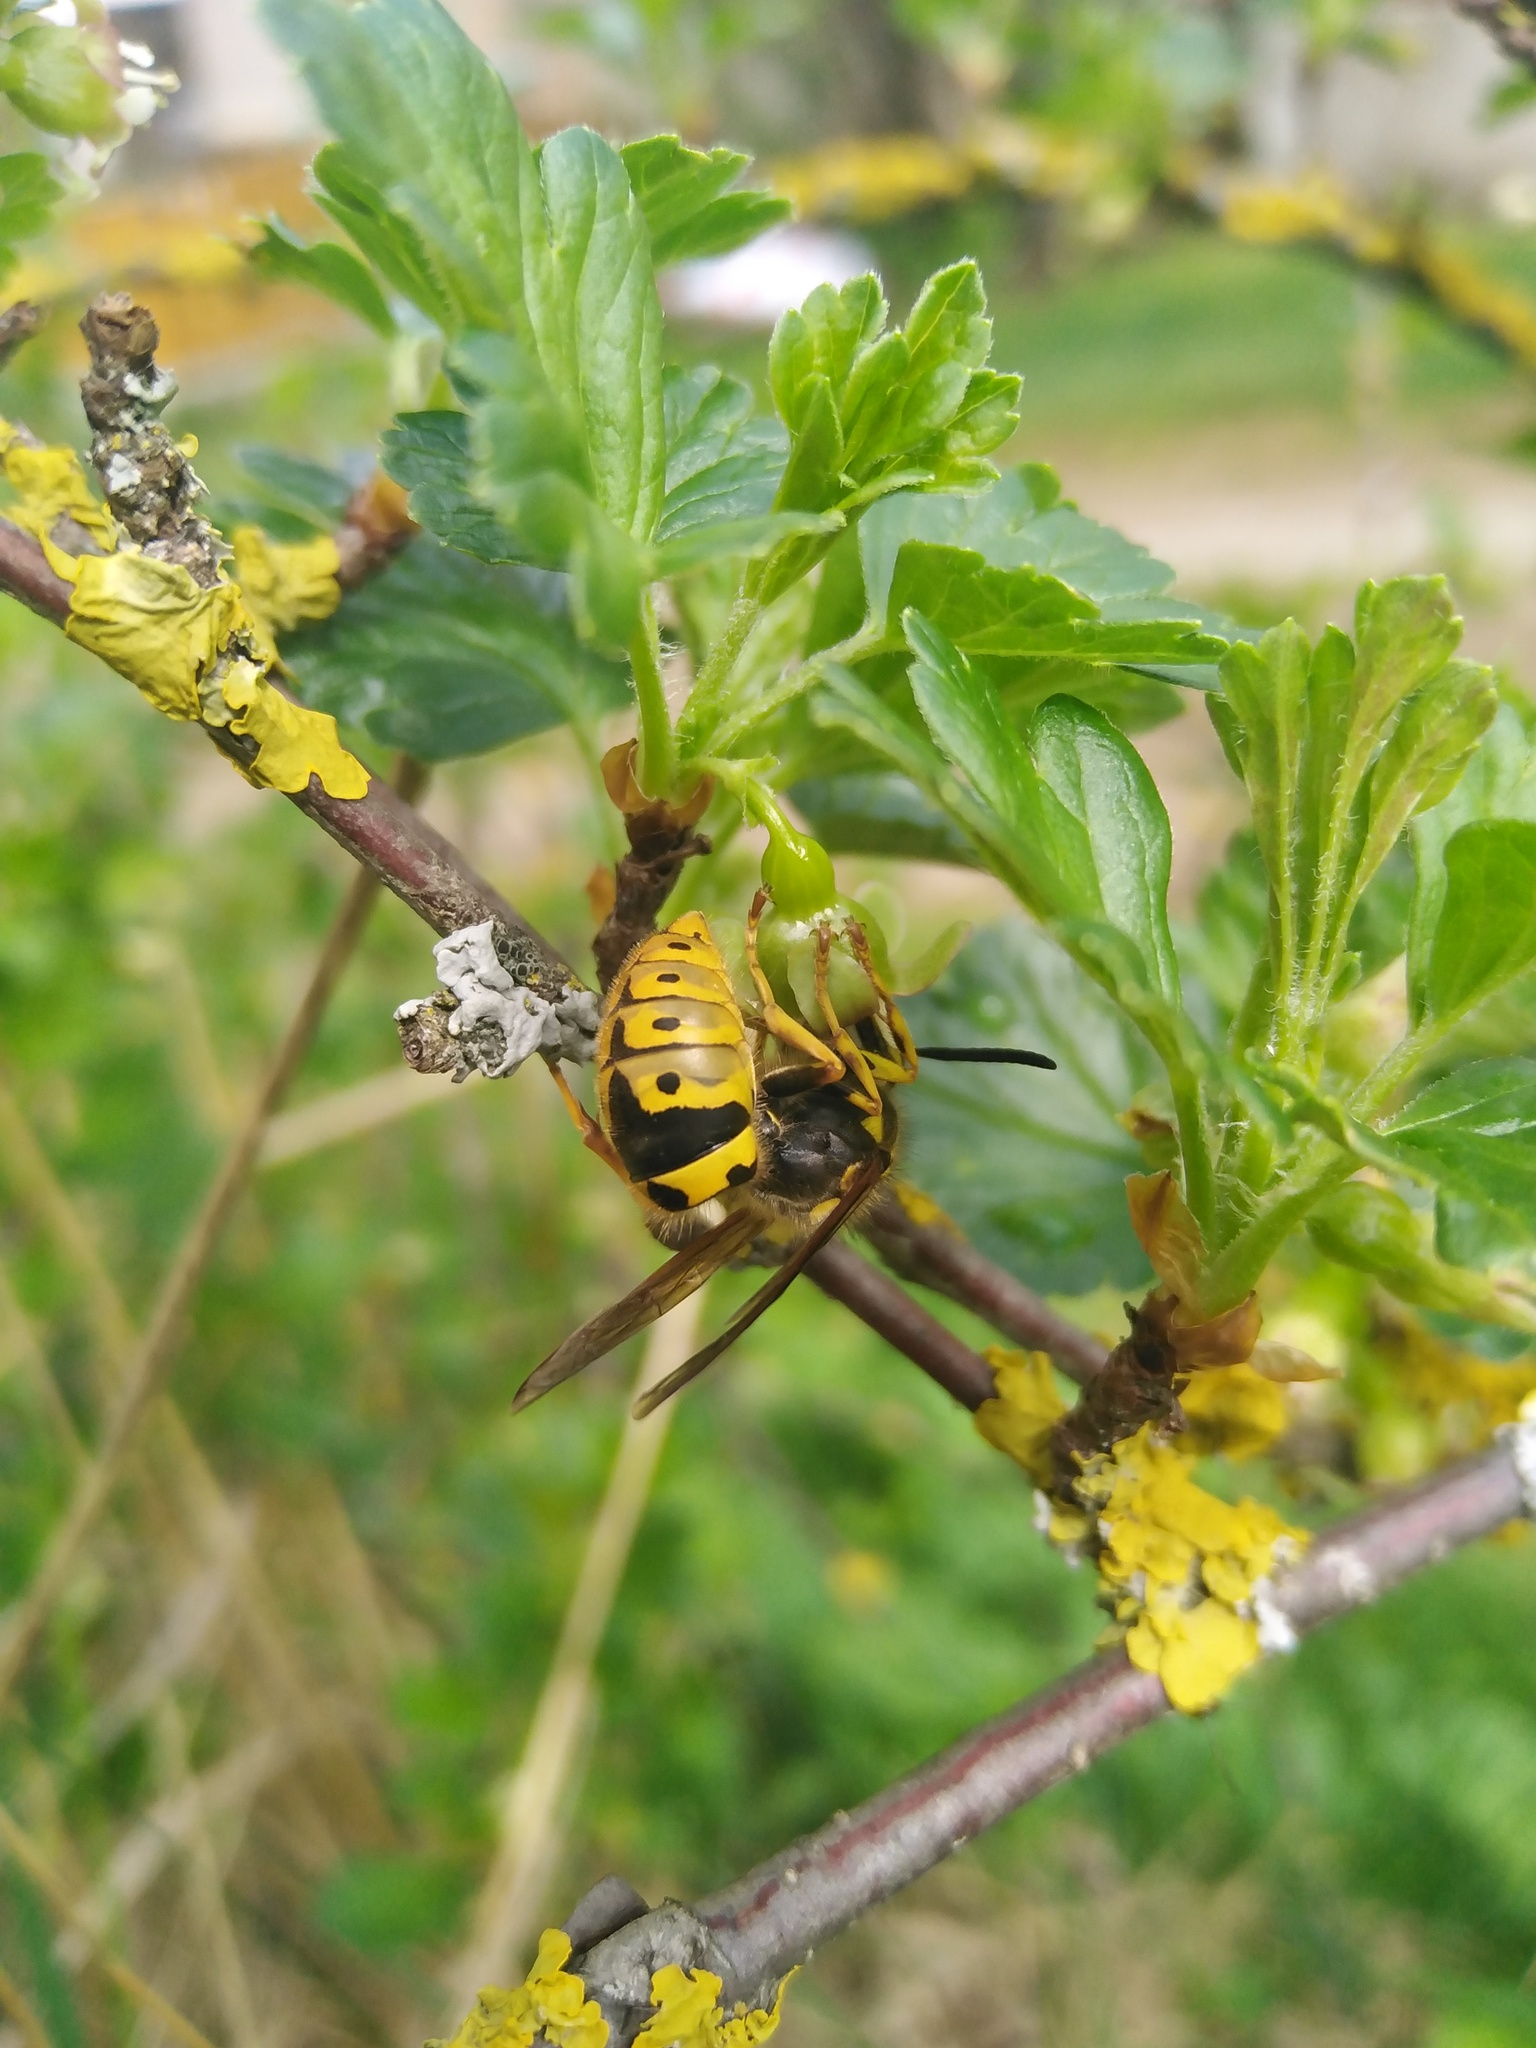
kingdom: Animalia
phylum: Arthropoda
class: Insecta
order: Hymenoptera
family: Vespidae
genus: Vespula
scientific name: Vespula germanica
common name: German wasp
